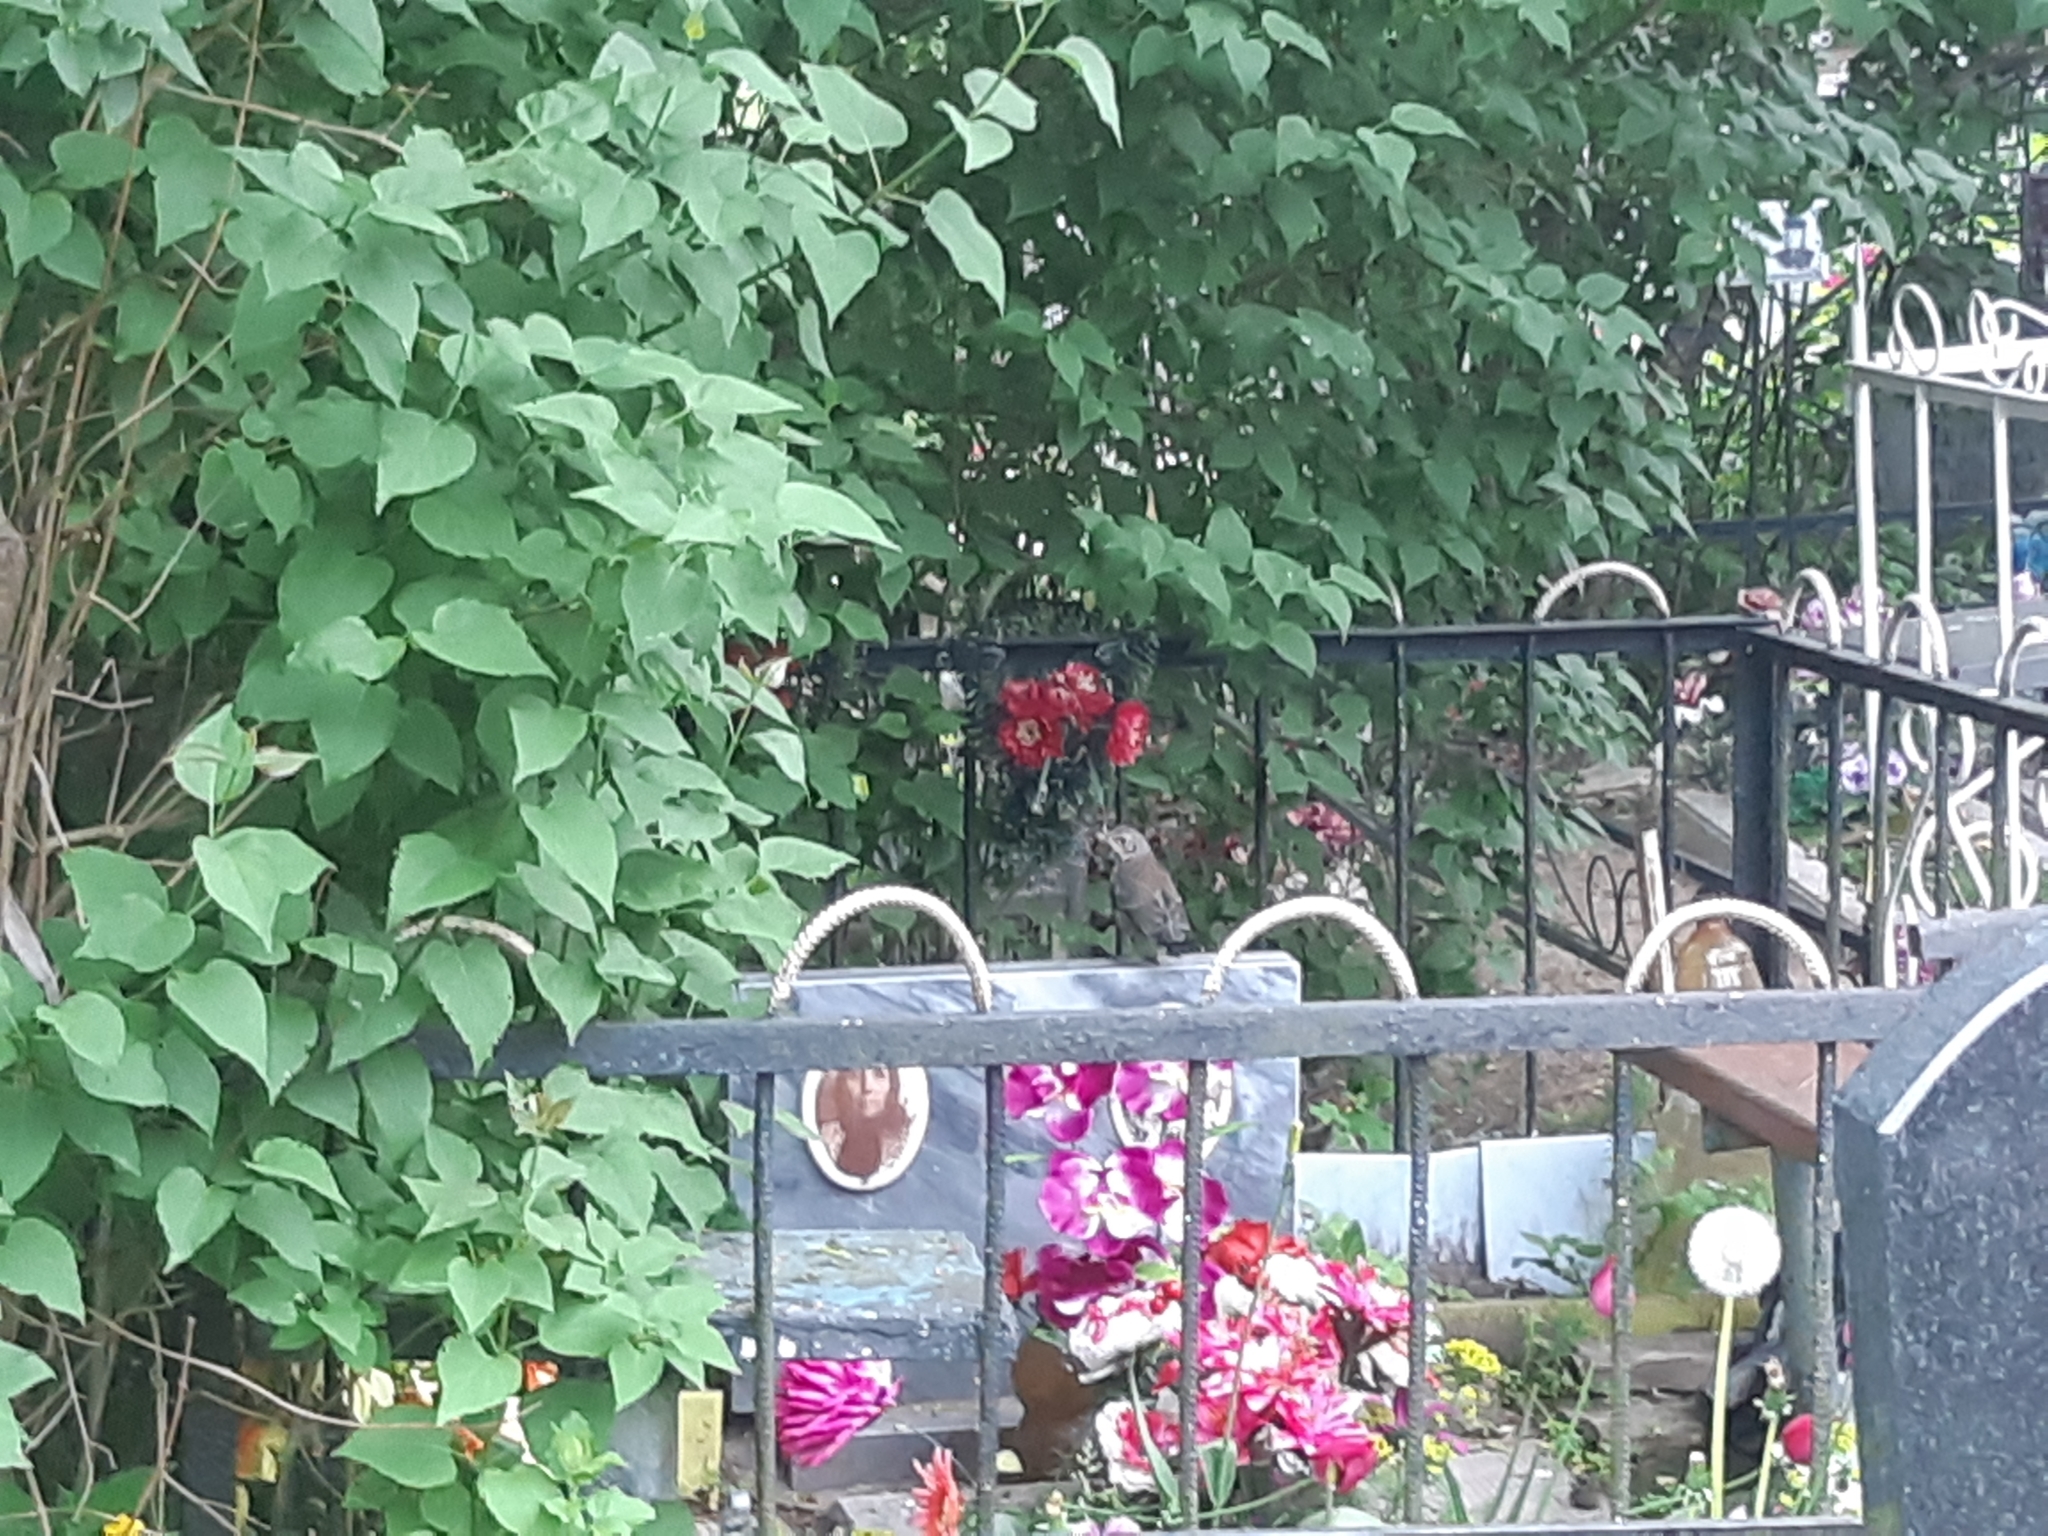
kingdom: Animalia
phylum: Chordata
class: Aves
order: Passeriformes
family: Turdidae
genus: Turdus
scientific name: Turdus pilaris
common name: Fieldfare
